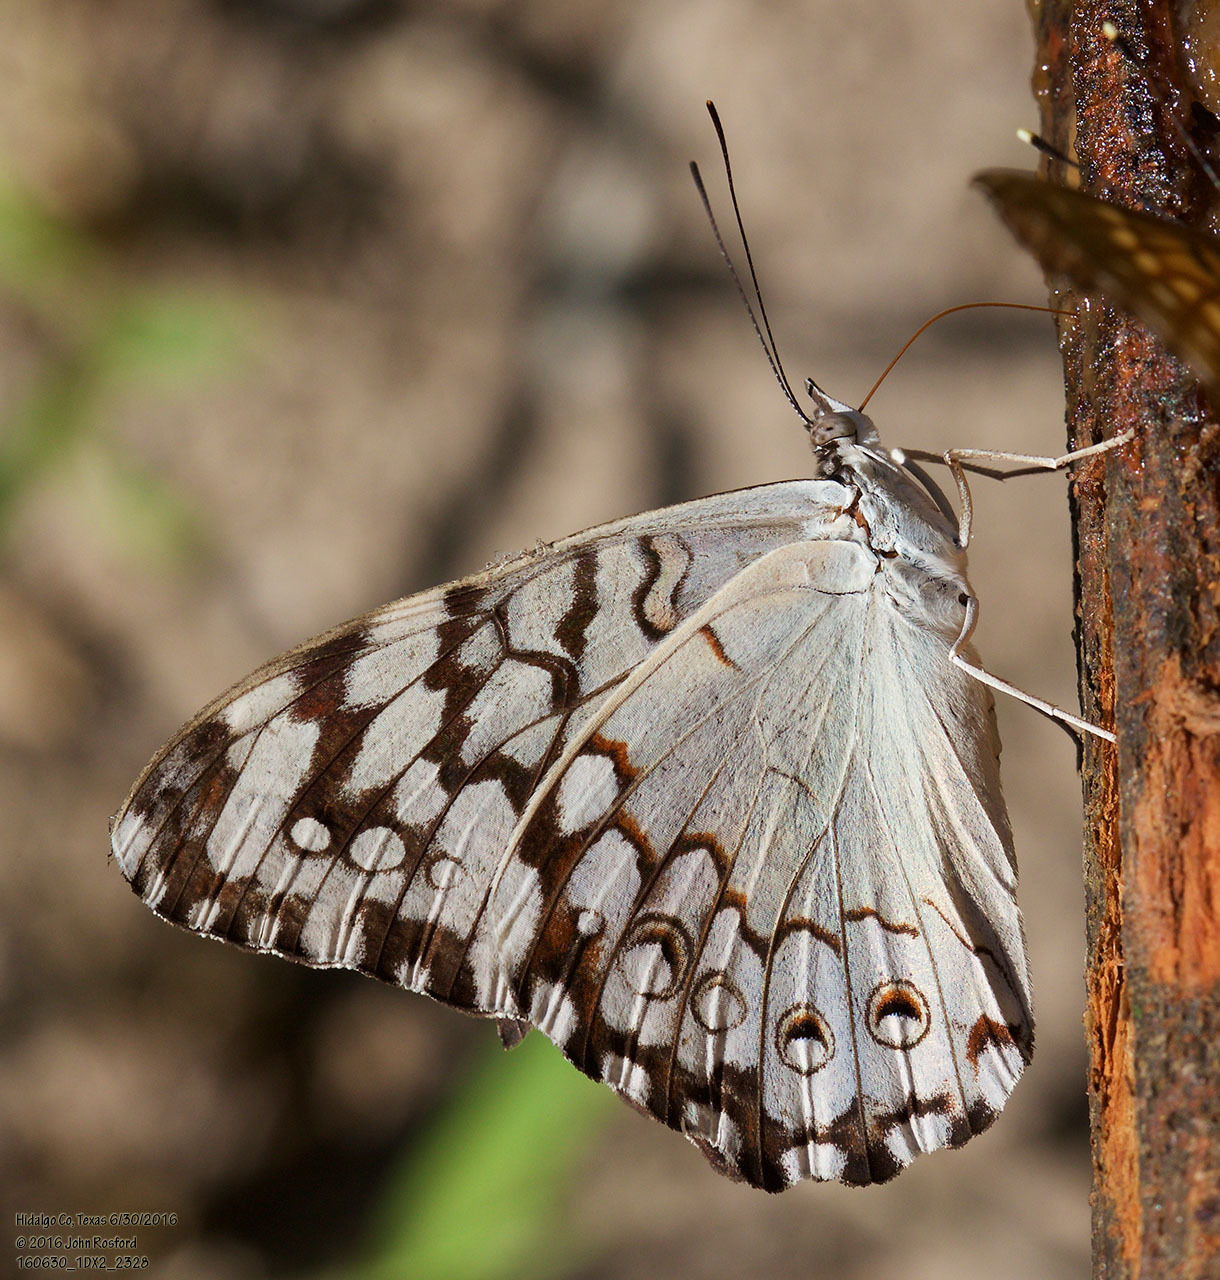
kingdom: Animalia
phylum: Arthropoda
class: Insecta
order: Lepidoptera
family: Nymphalidae
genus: Hamadryas
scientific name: Hamadryas februa
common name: Gray cracker
